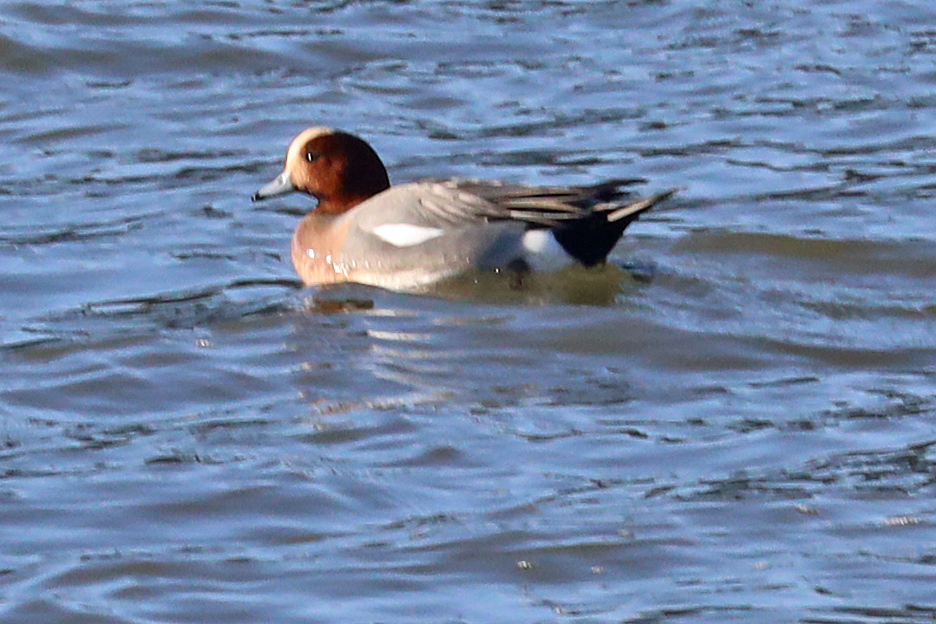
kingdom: Animalia
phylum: Chordata
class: Aves
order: Anseriformes
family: Anatidae
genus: Mareca
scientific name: Mareca penelope
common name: Eurasian wigeon
